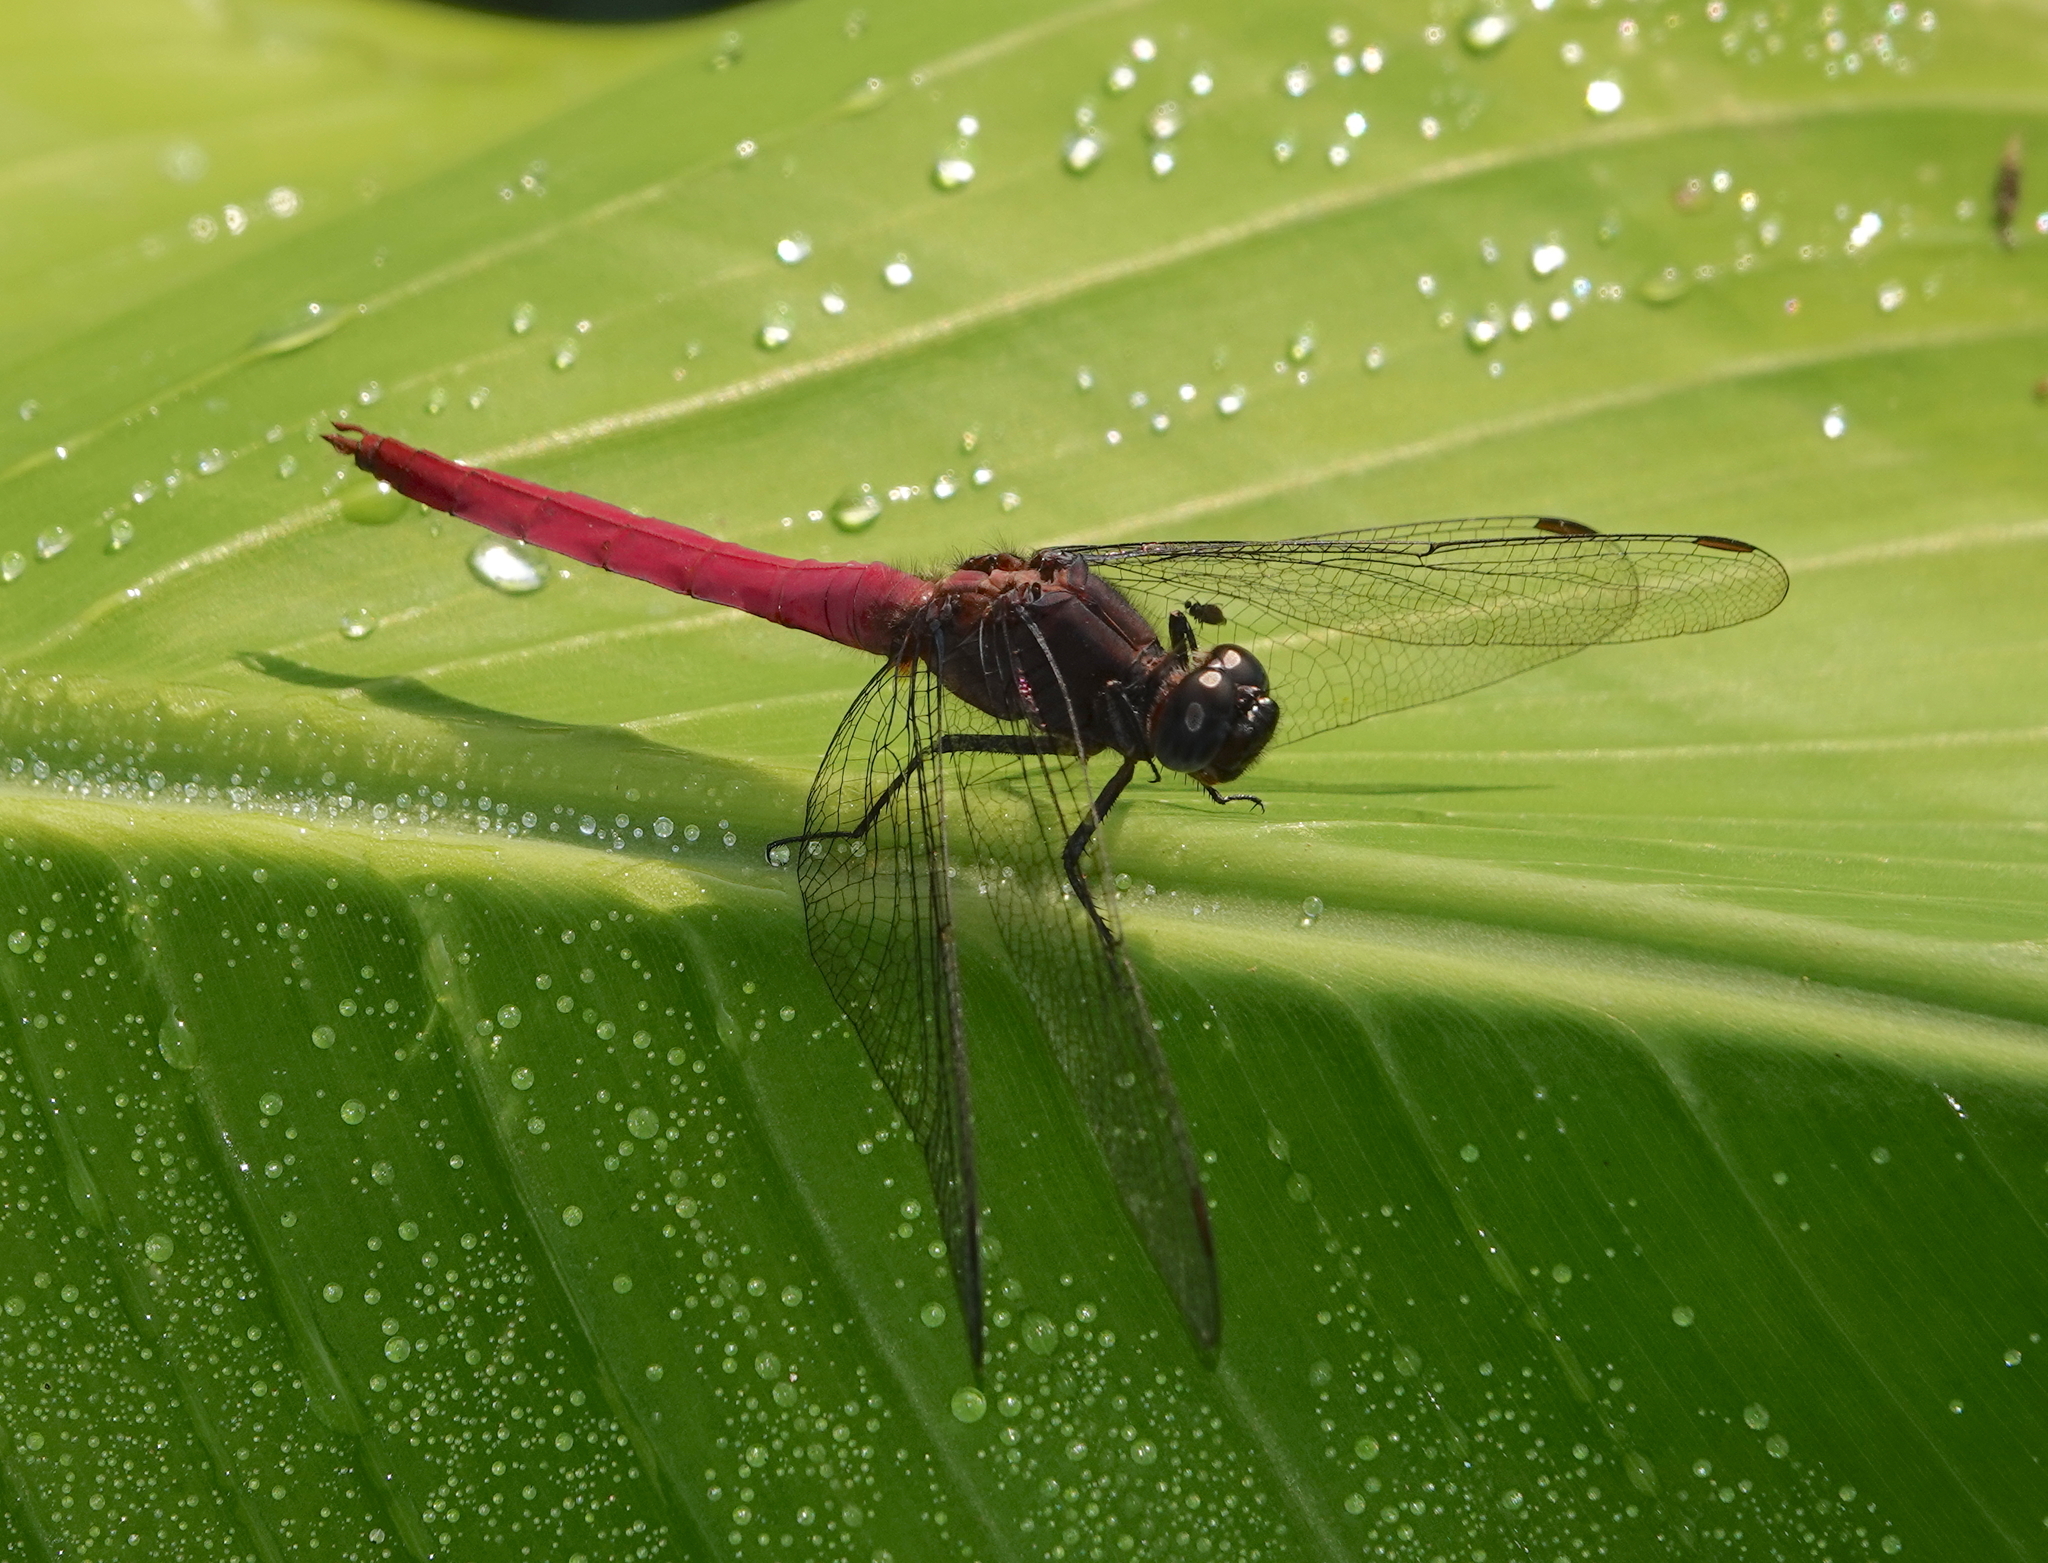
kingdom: Animalia
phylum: Arthropoda
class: Insecta
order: Odonata
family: Libellulidae
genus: Orthetrum
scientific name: Orthetrum pruinosum
